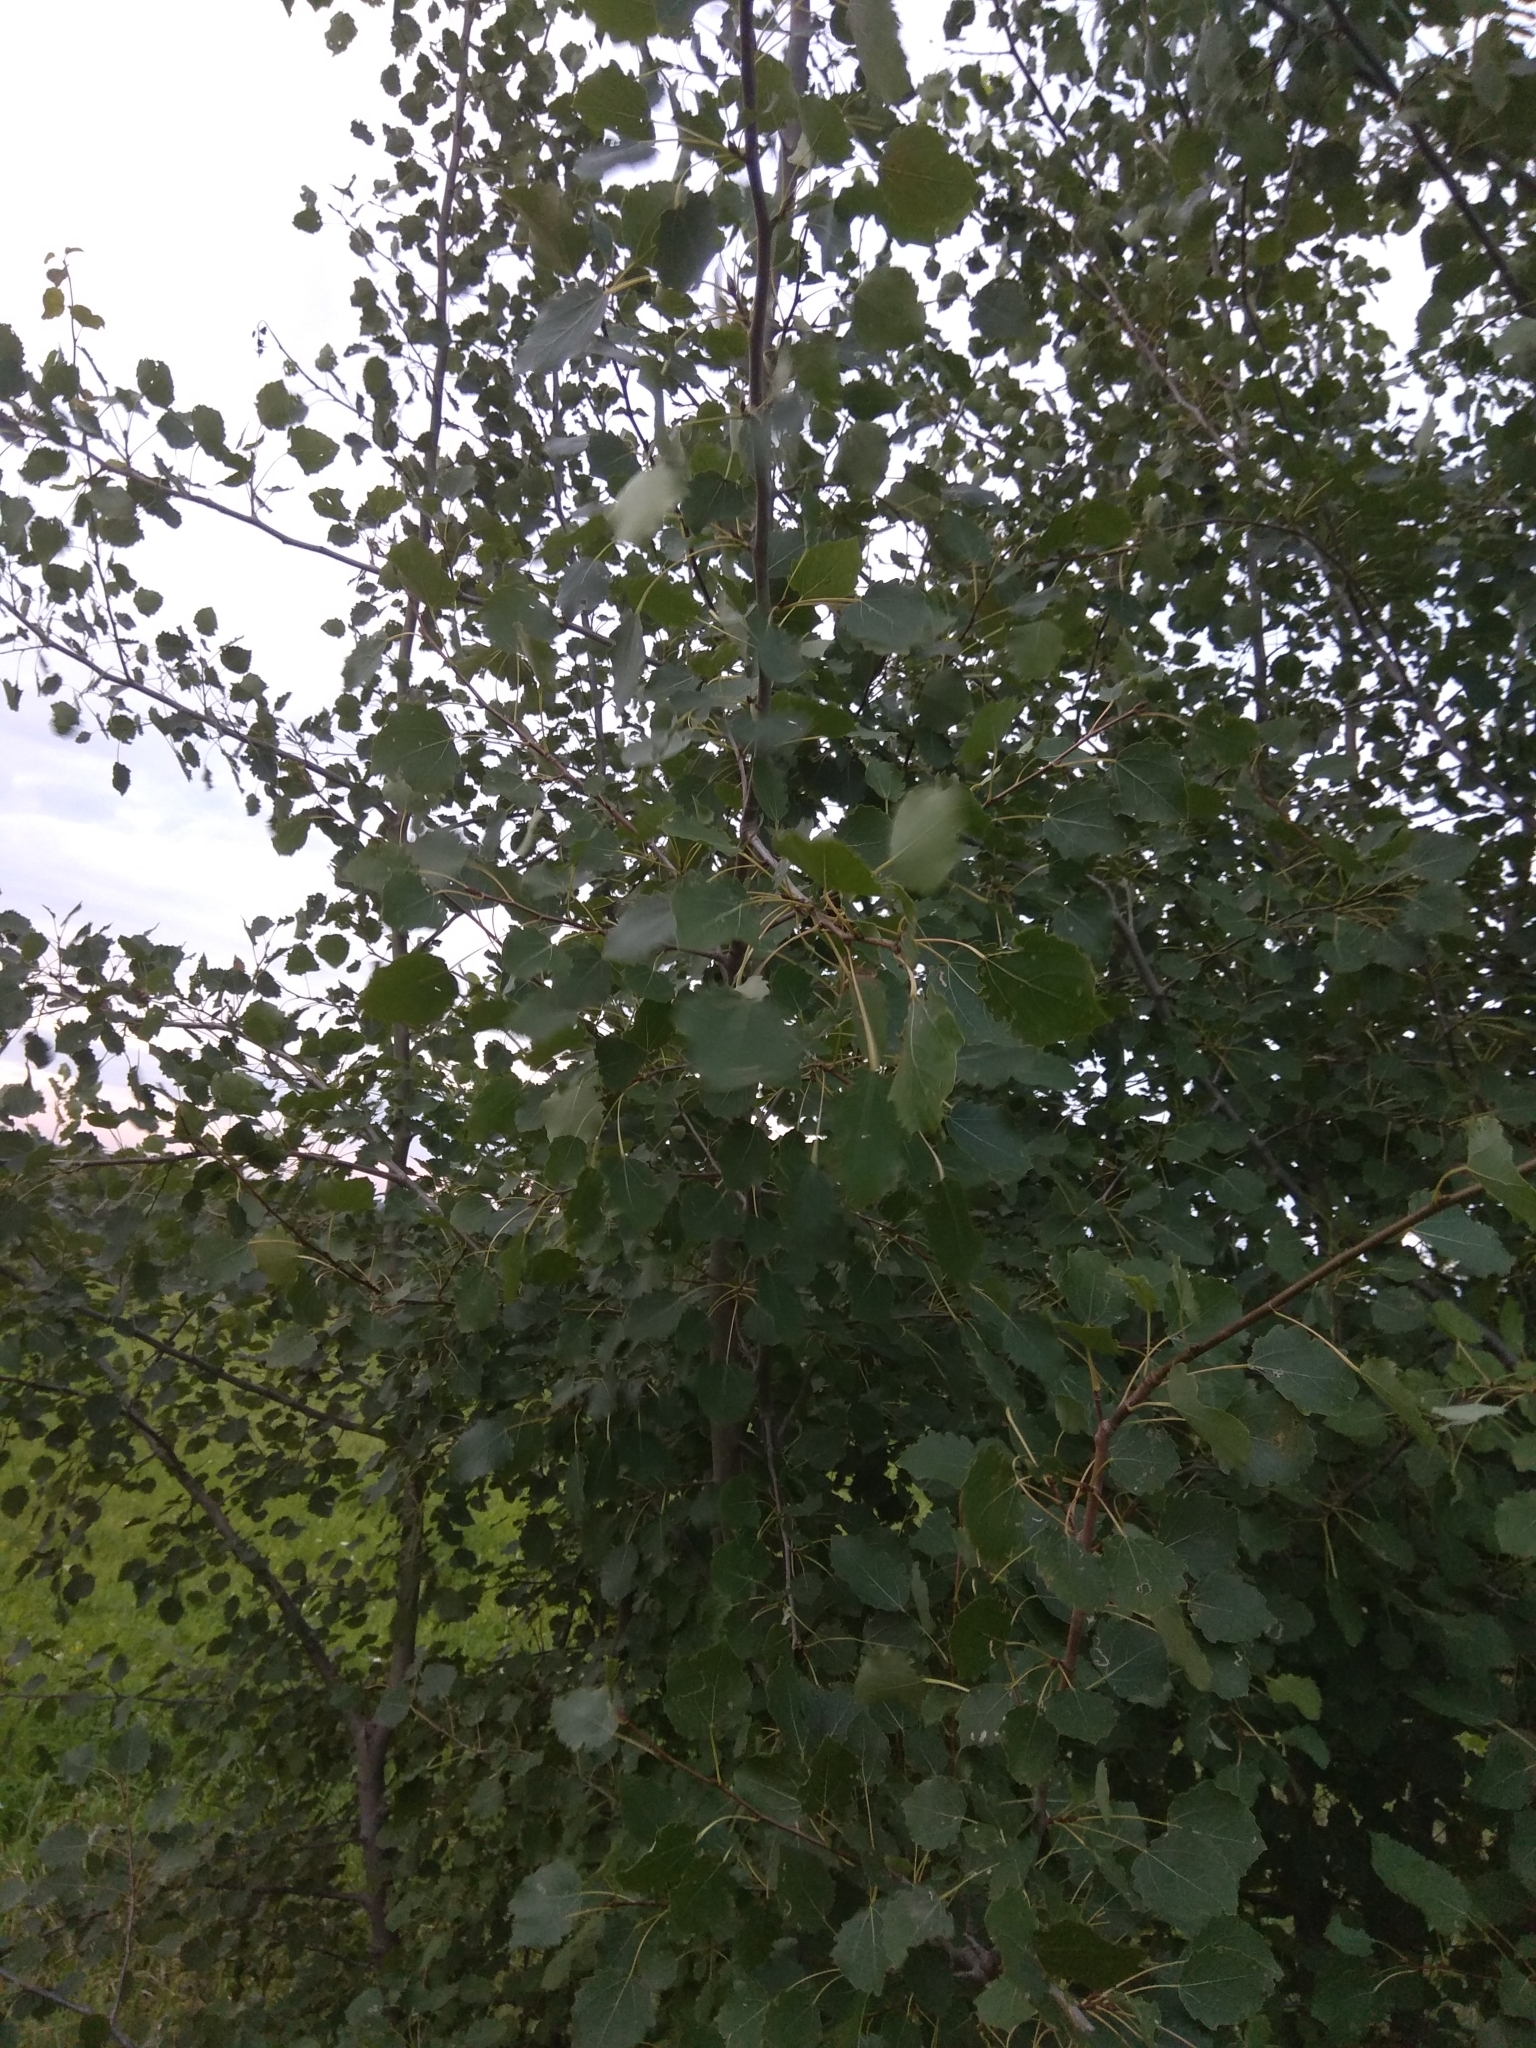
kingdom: Plantae
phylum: Tracheophyta
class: Magnoliopsida
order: Malpighiales
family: Salicaceae
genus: Populus
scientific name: Populus tremula
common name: European aspen
